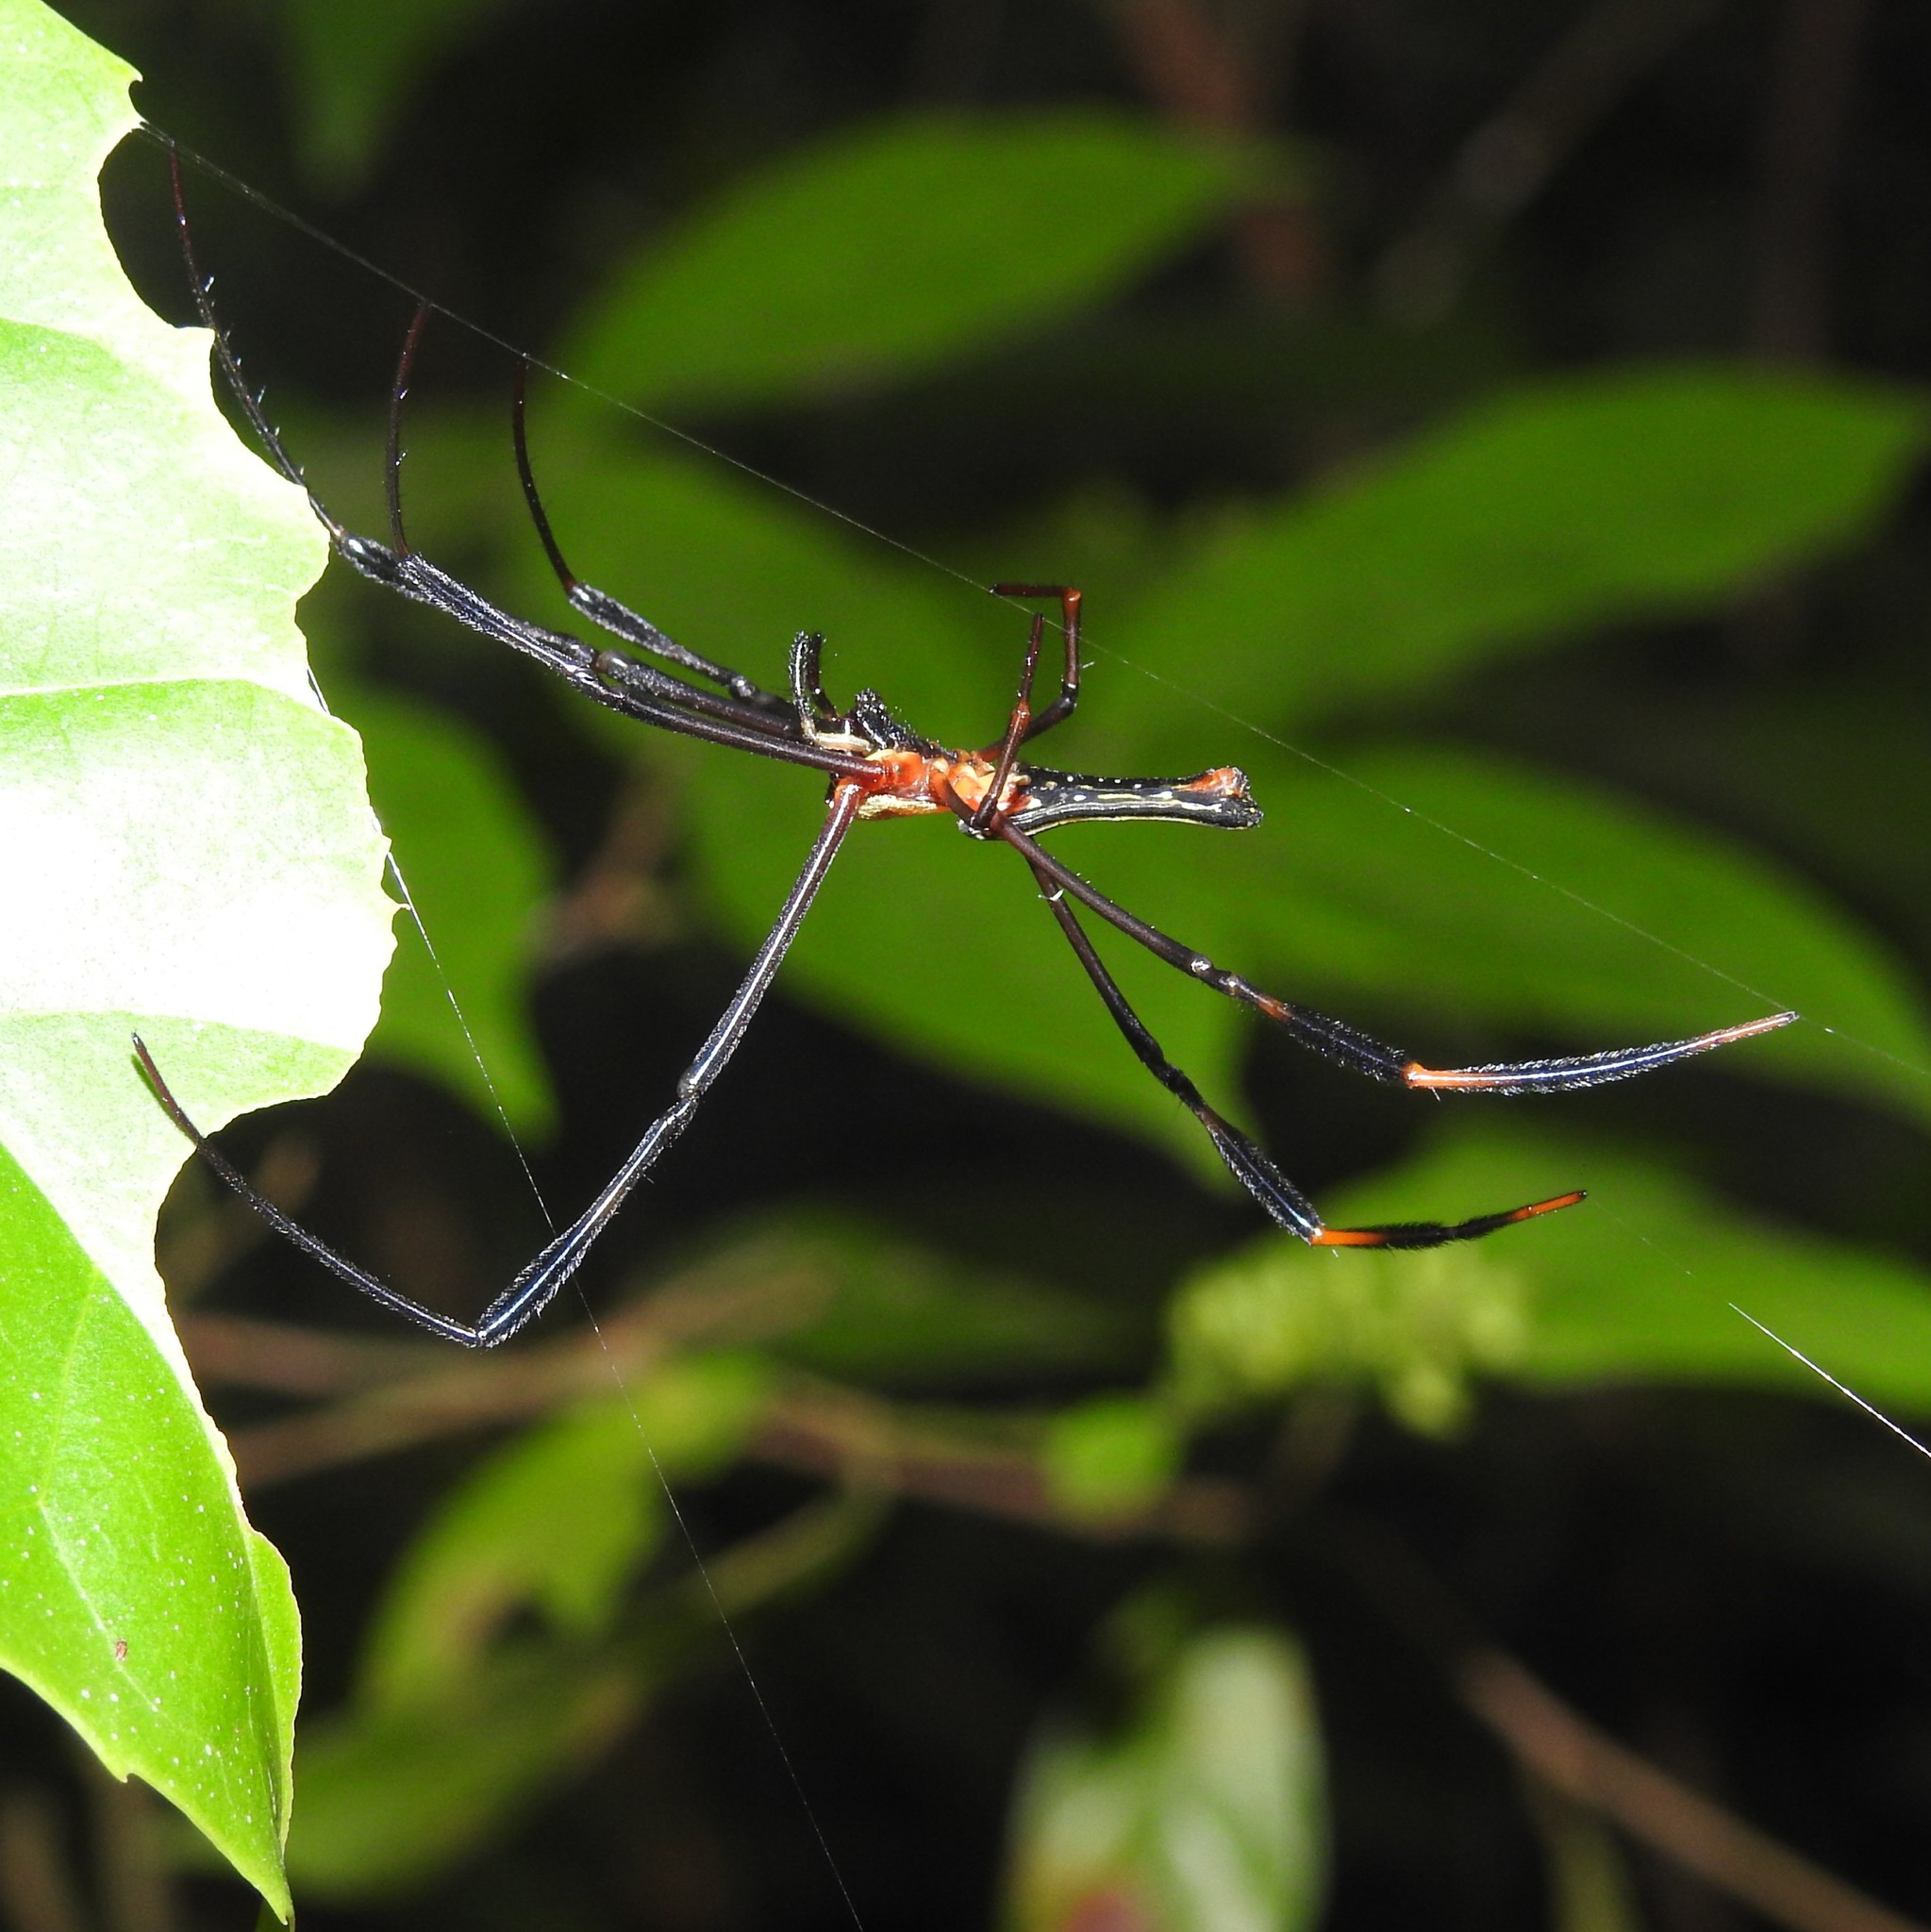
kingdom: Animalia
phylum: Arthropoda
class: Arachnida
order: Araneae
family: Araneidae
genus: Nephila
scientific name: Nephila pilipes
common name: Giant golden orb weaver
